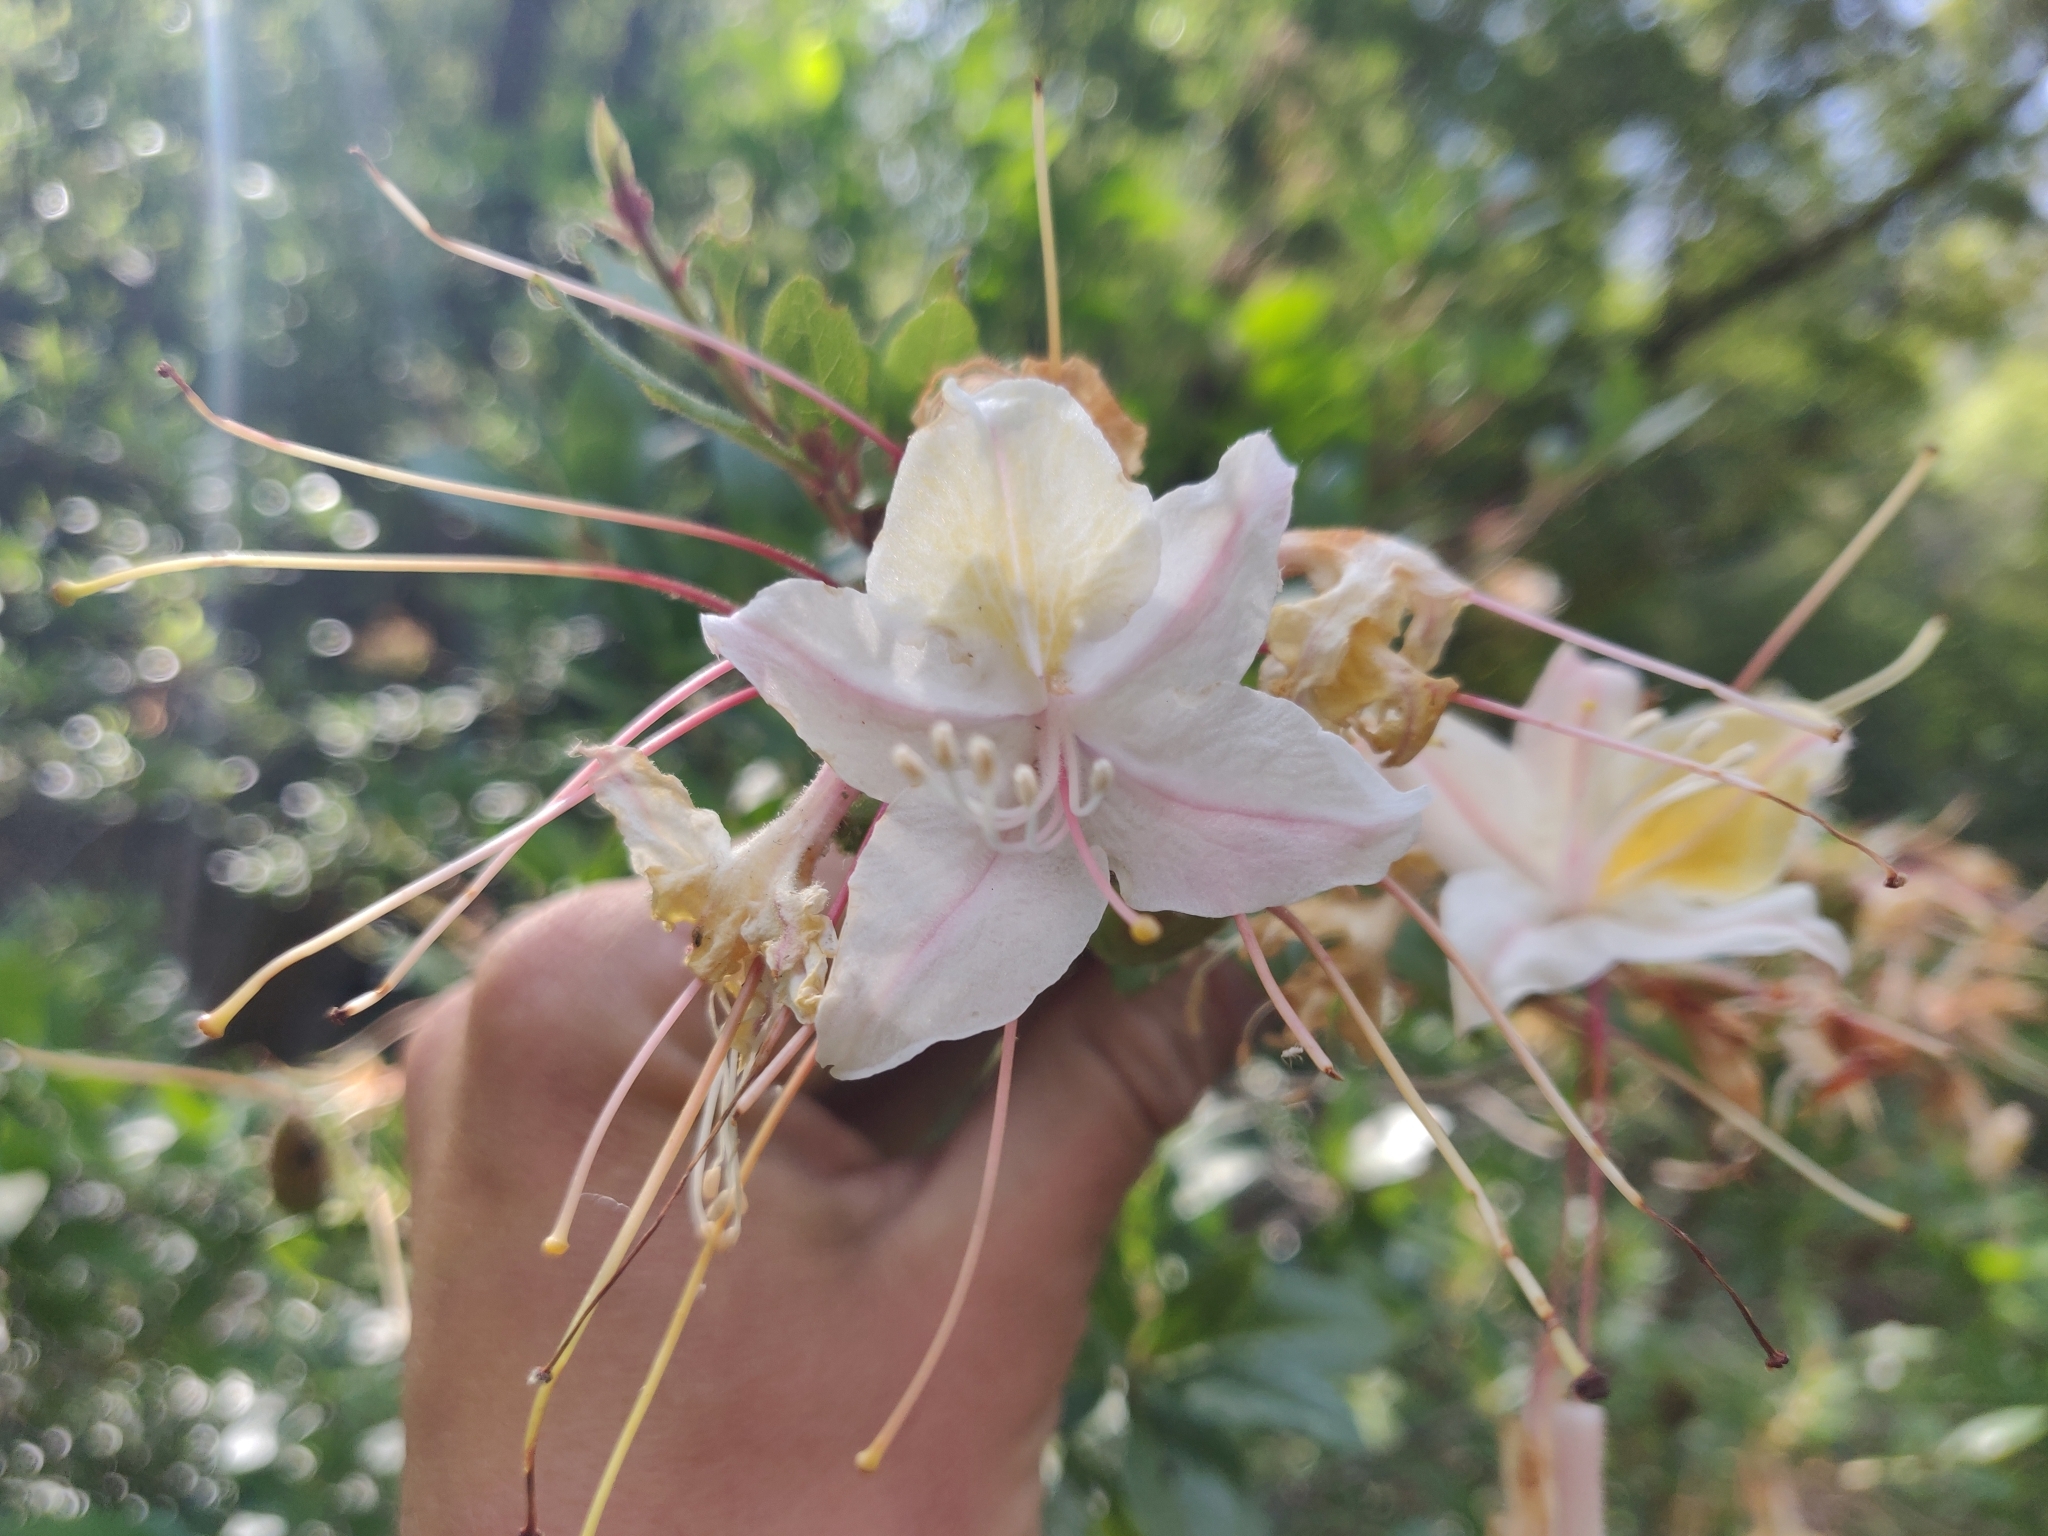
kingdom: Plantae
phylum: Tracheophyta
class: Magnoliopsida
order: Ericales
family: Ericaceae
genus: Rhododendron
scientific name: Rhododendron occidentale
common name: Western azalea
